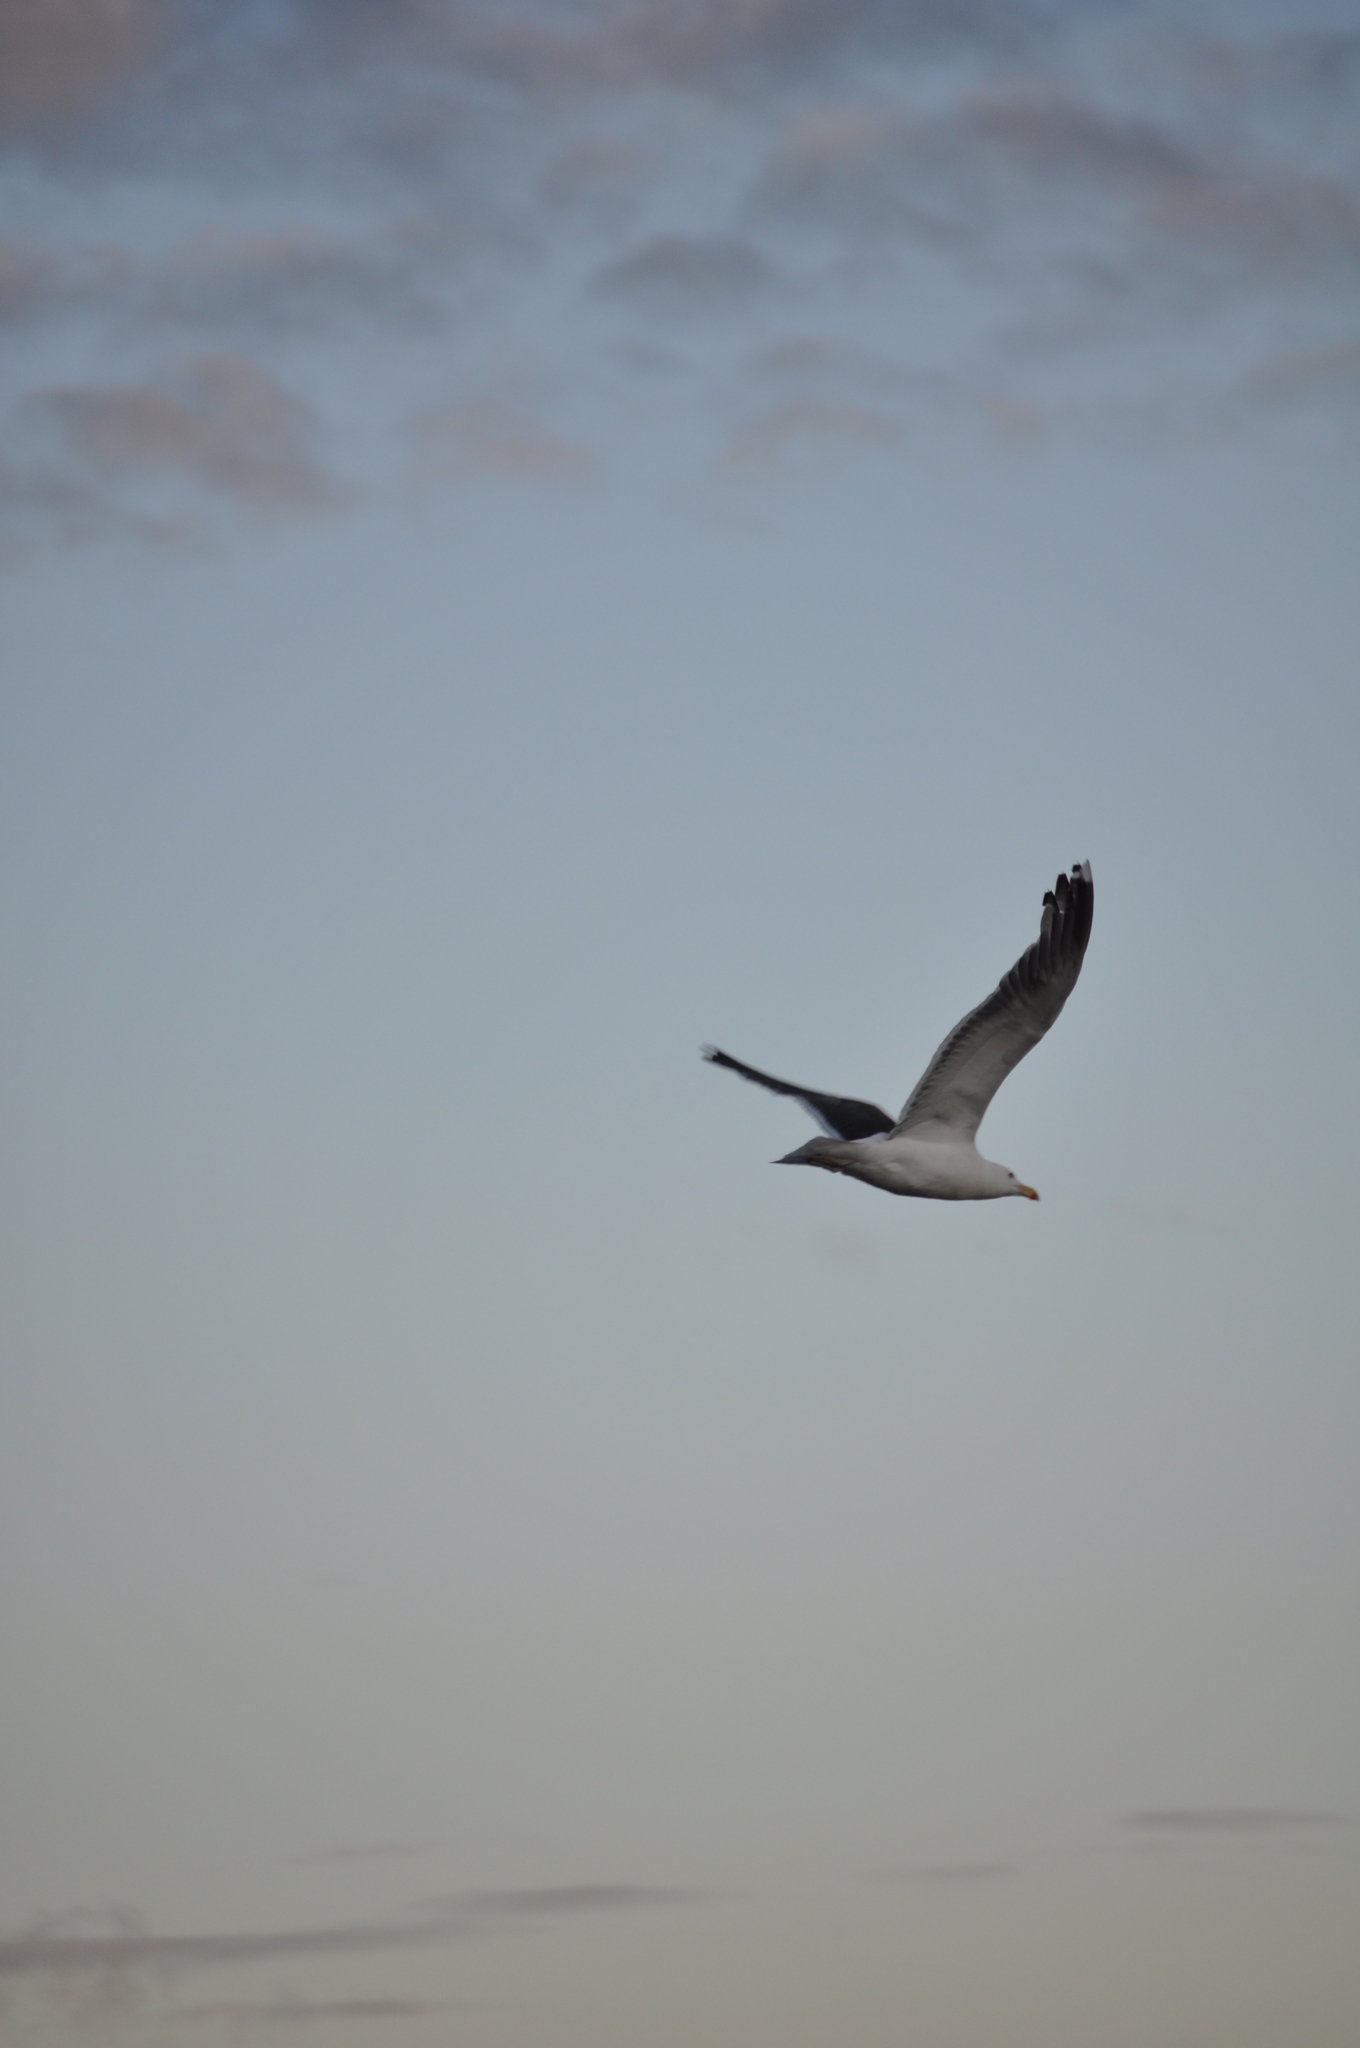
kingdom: Animalia
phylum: Chordata
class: Aves
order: Charadriiformes
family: Laridae
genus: Larus
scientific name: Larus marinus
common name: Great black-backed gull
